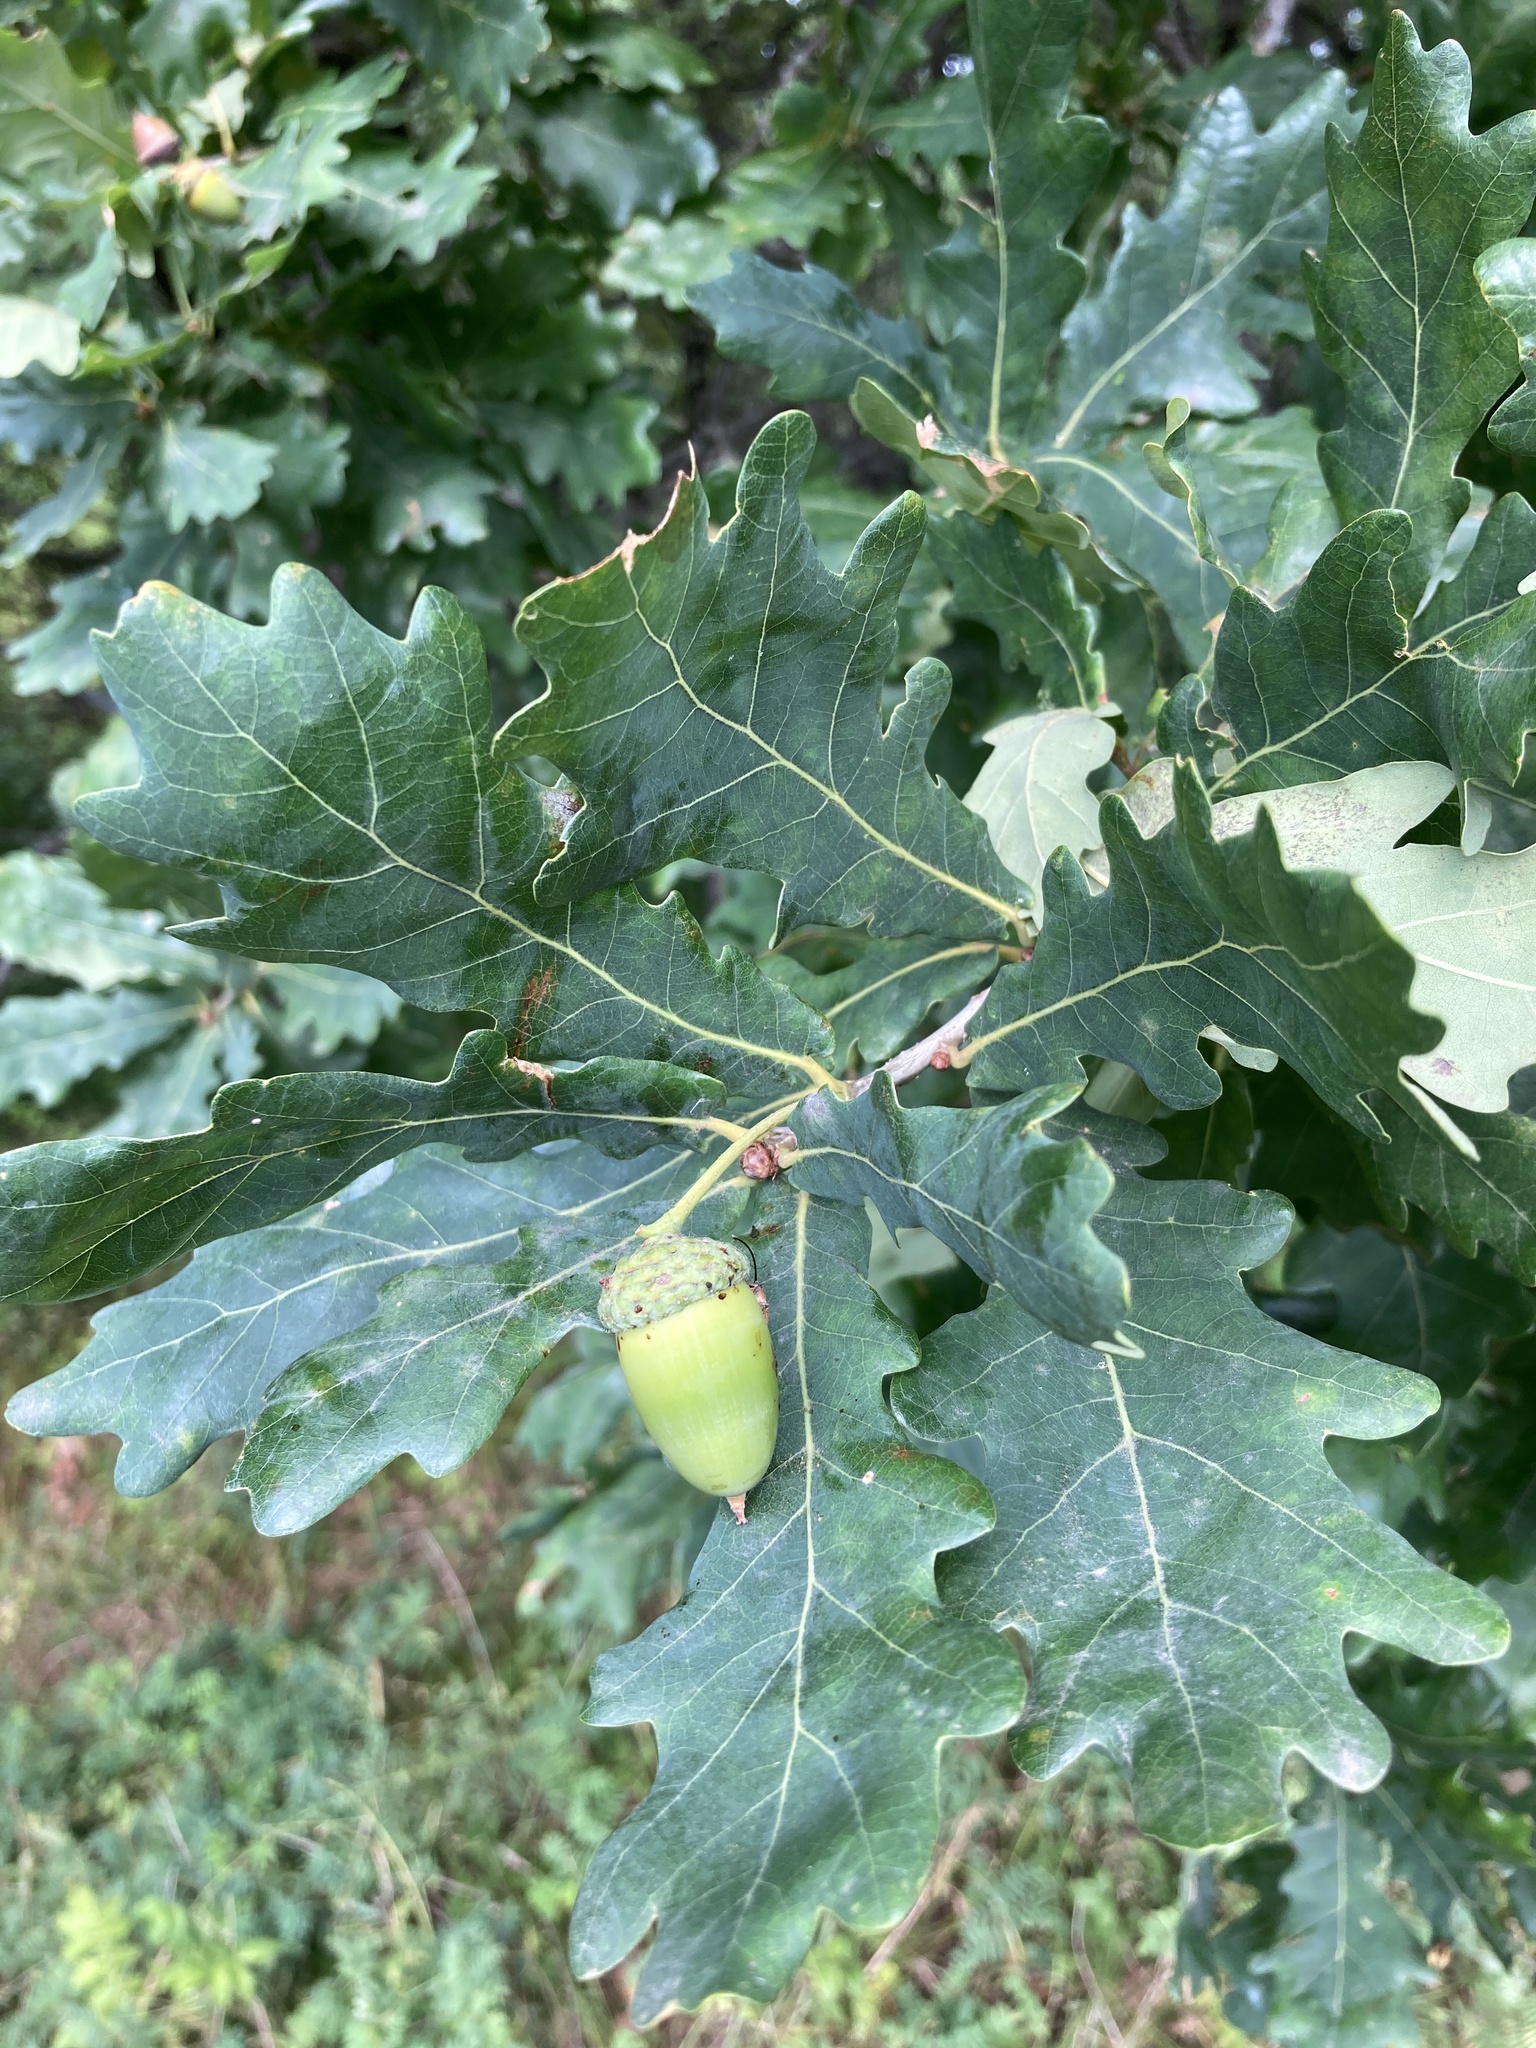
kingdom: Plantae
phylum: Tracheophyta
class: Magnoliopsida
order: Fagales
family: Fagaceae
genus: Quercus
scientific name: Quercus robur
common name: Pedunculate oak
